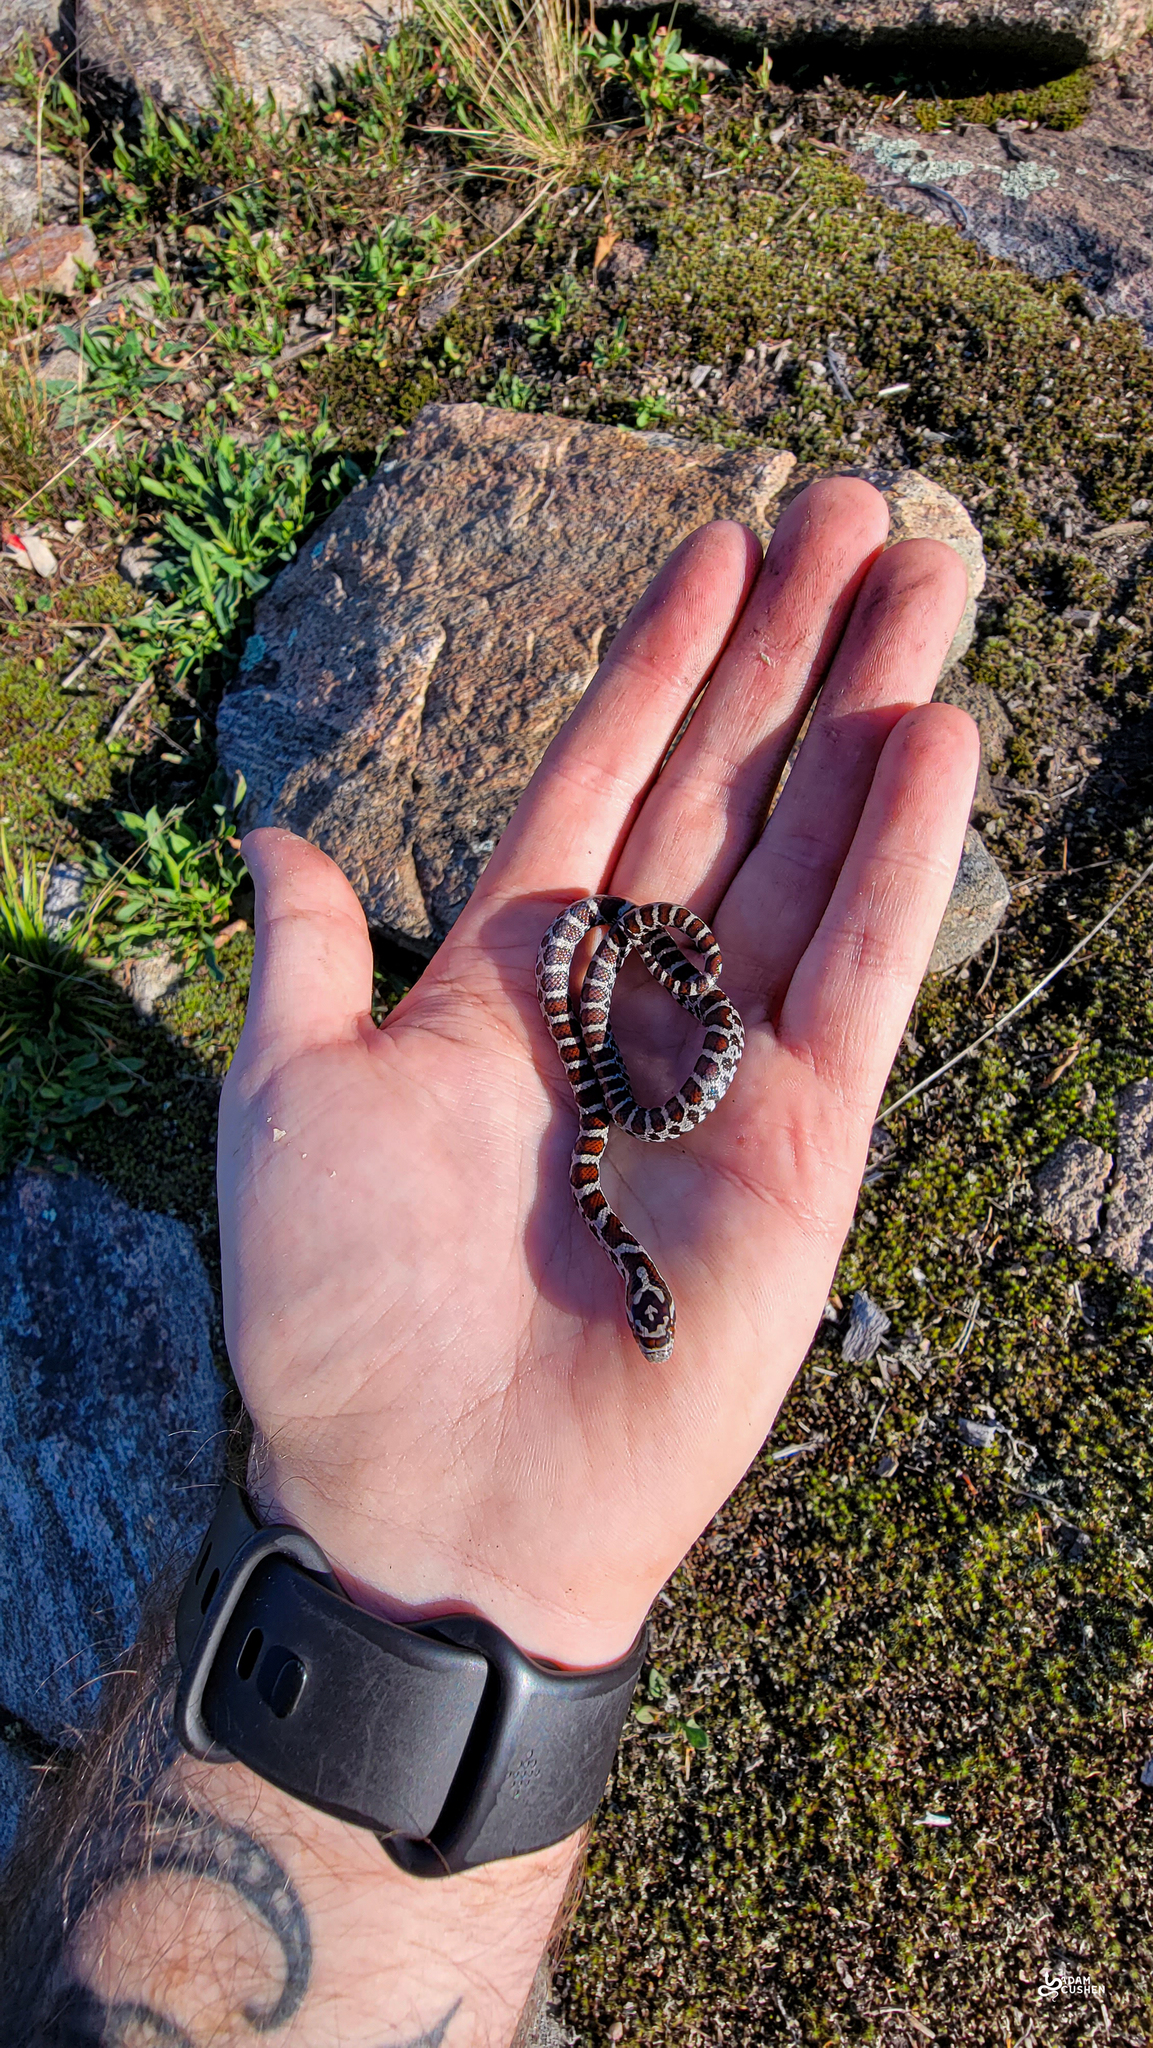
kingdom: Animalia
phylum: Chordata
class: Squamata
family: Colubridae
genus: Lampropeltis
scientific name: Lampropeltis triangulum
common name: Eastern milksnake
